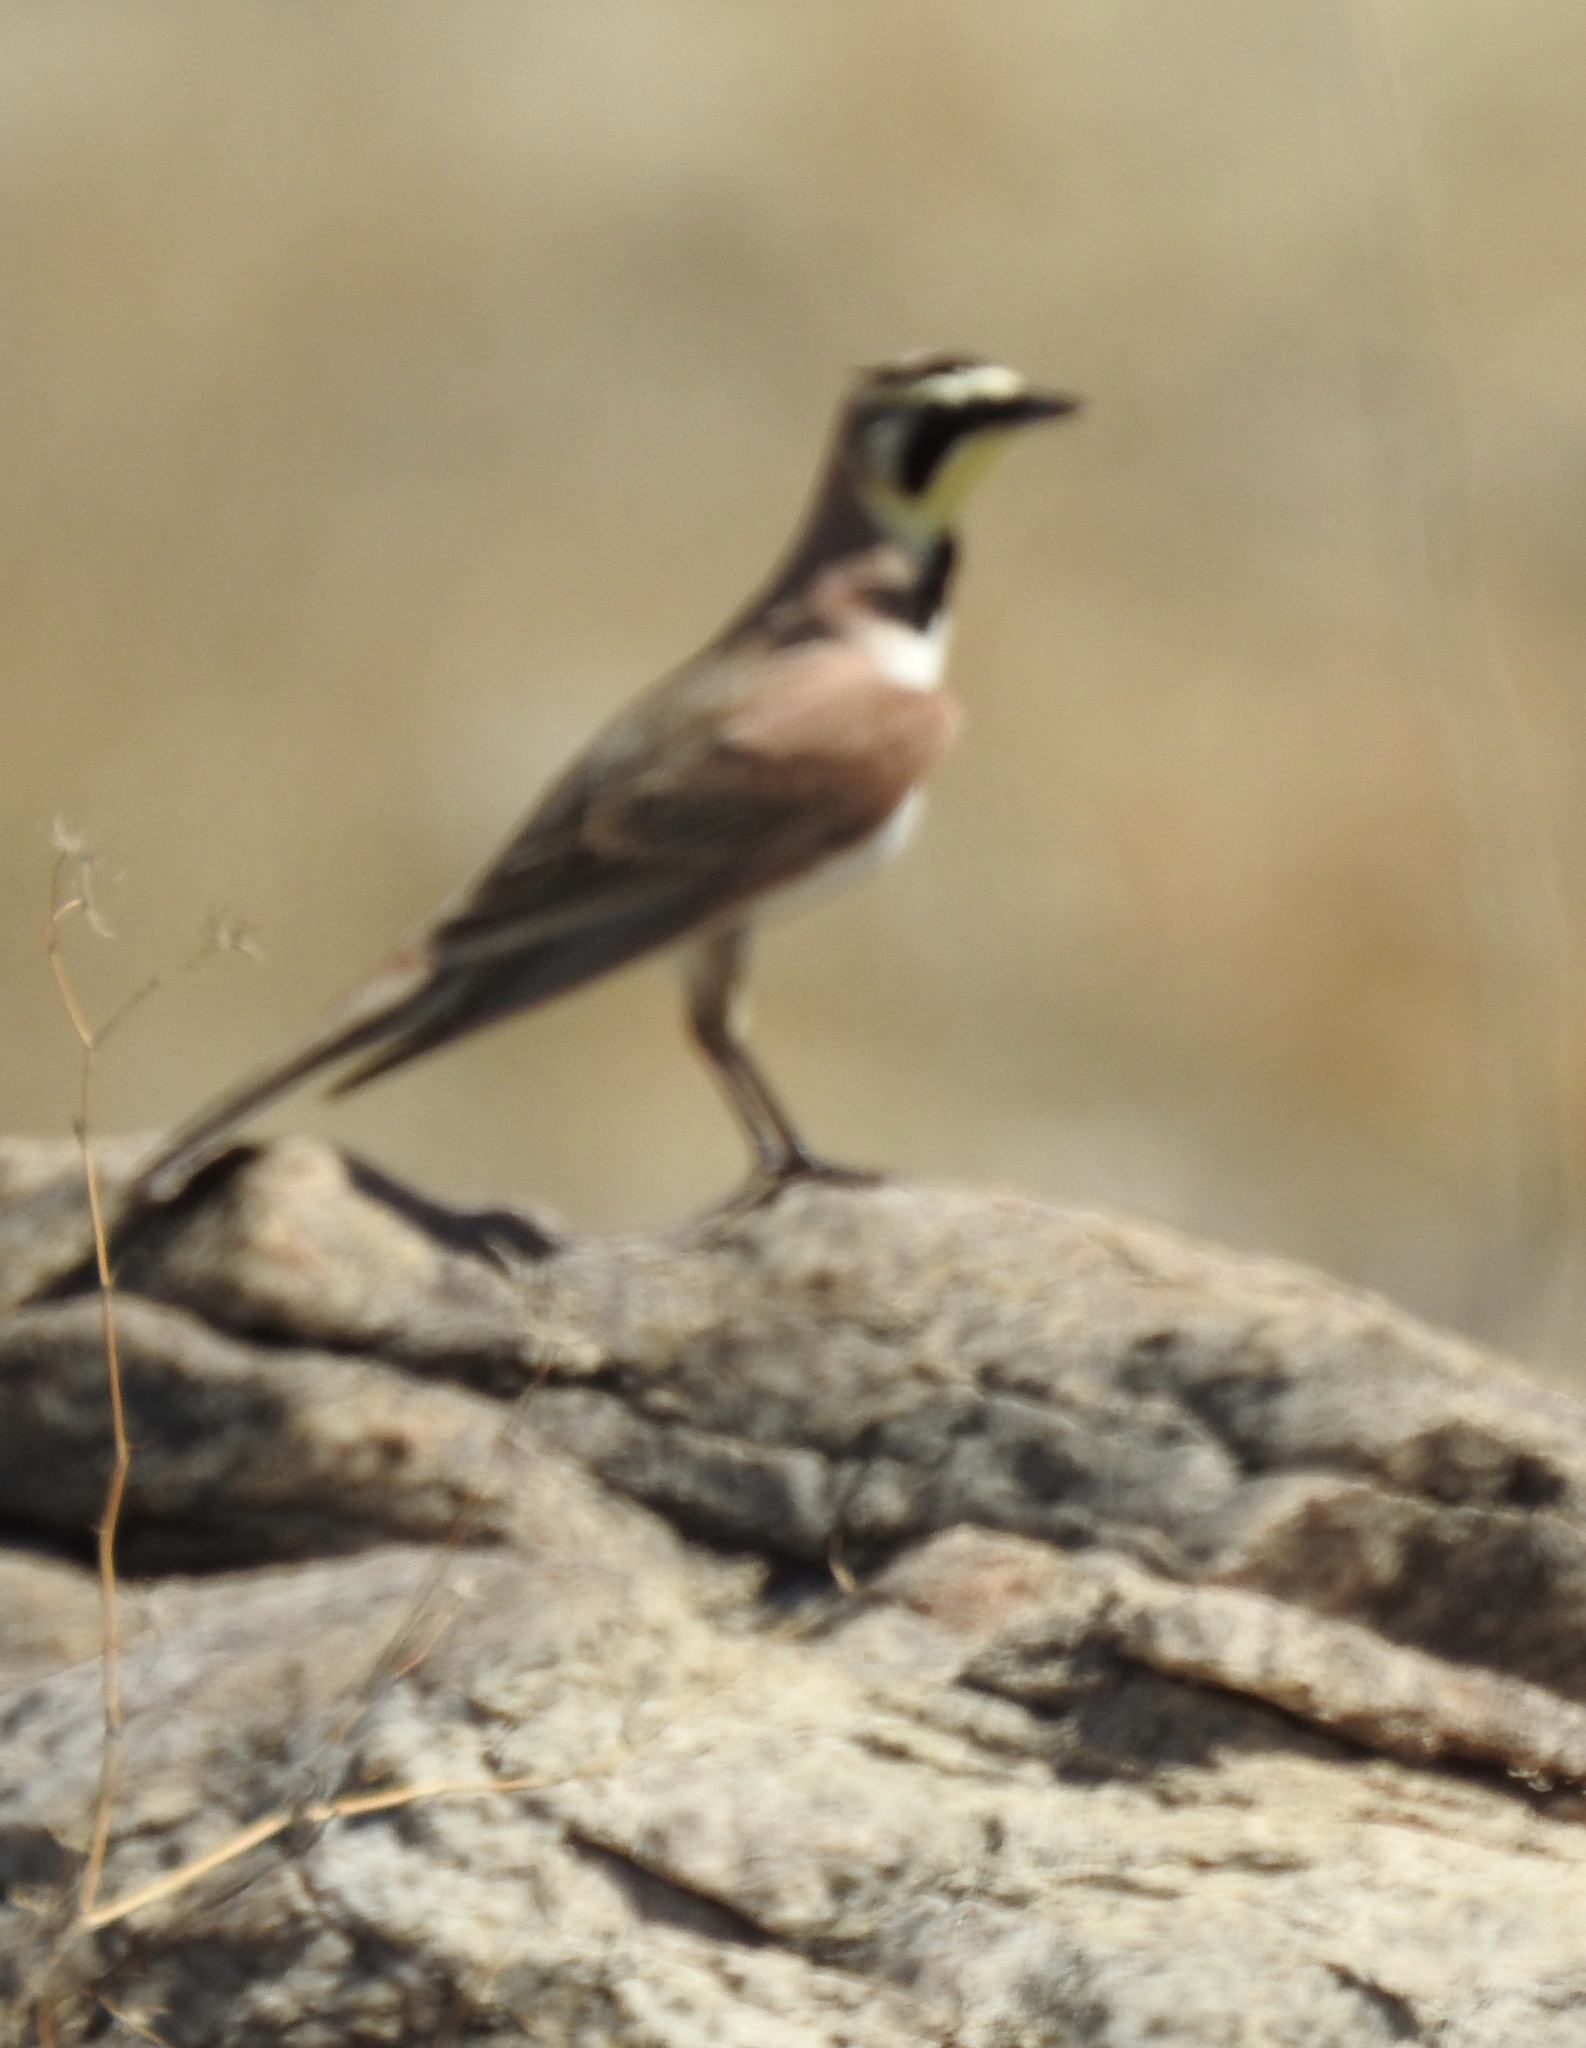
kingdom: Animalia
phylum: Chordata
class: Aves
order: Passeriformes
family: Alaudidae
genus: Eremophila
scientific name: Eremophila alpestris
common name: Horned lark
